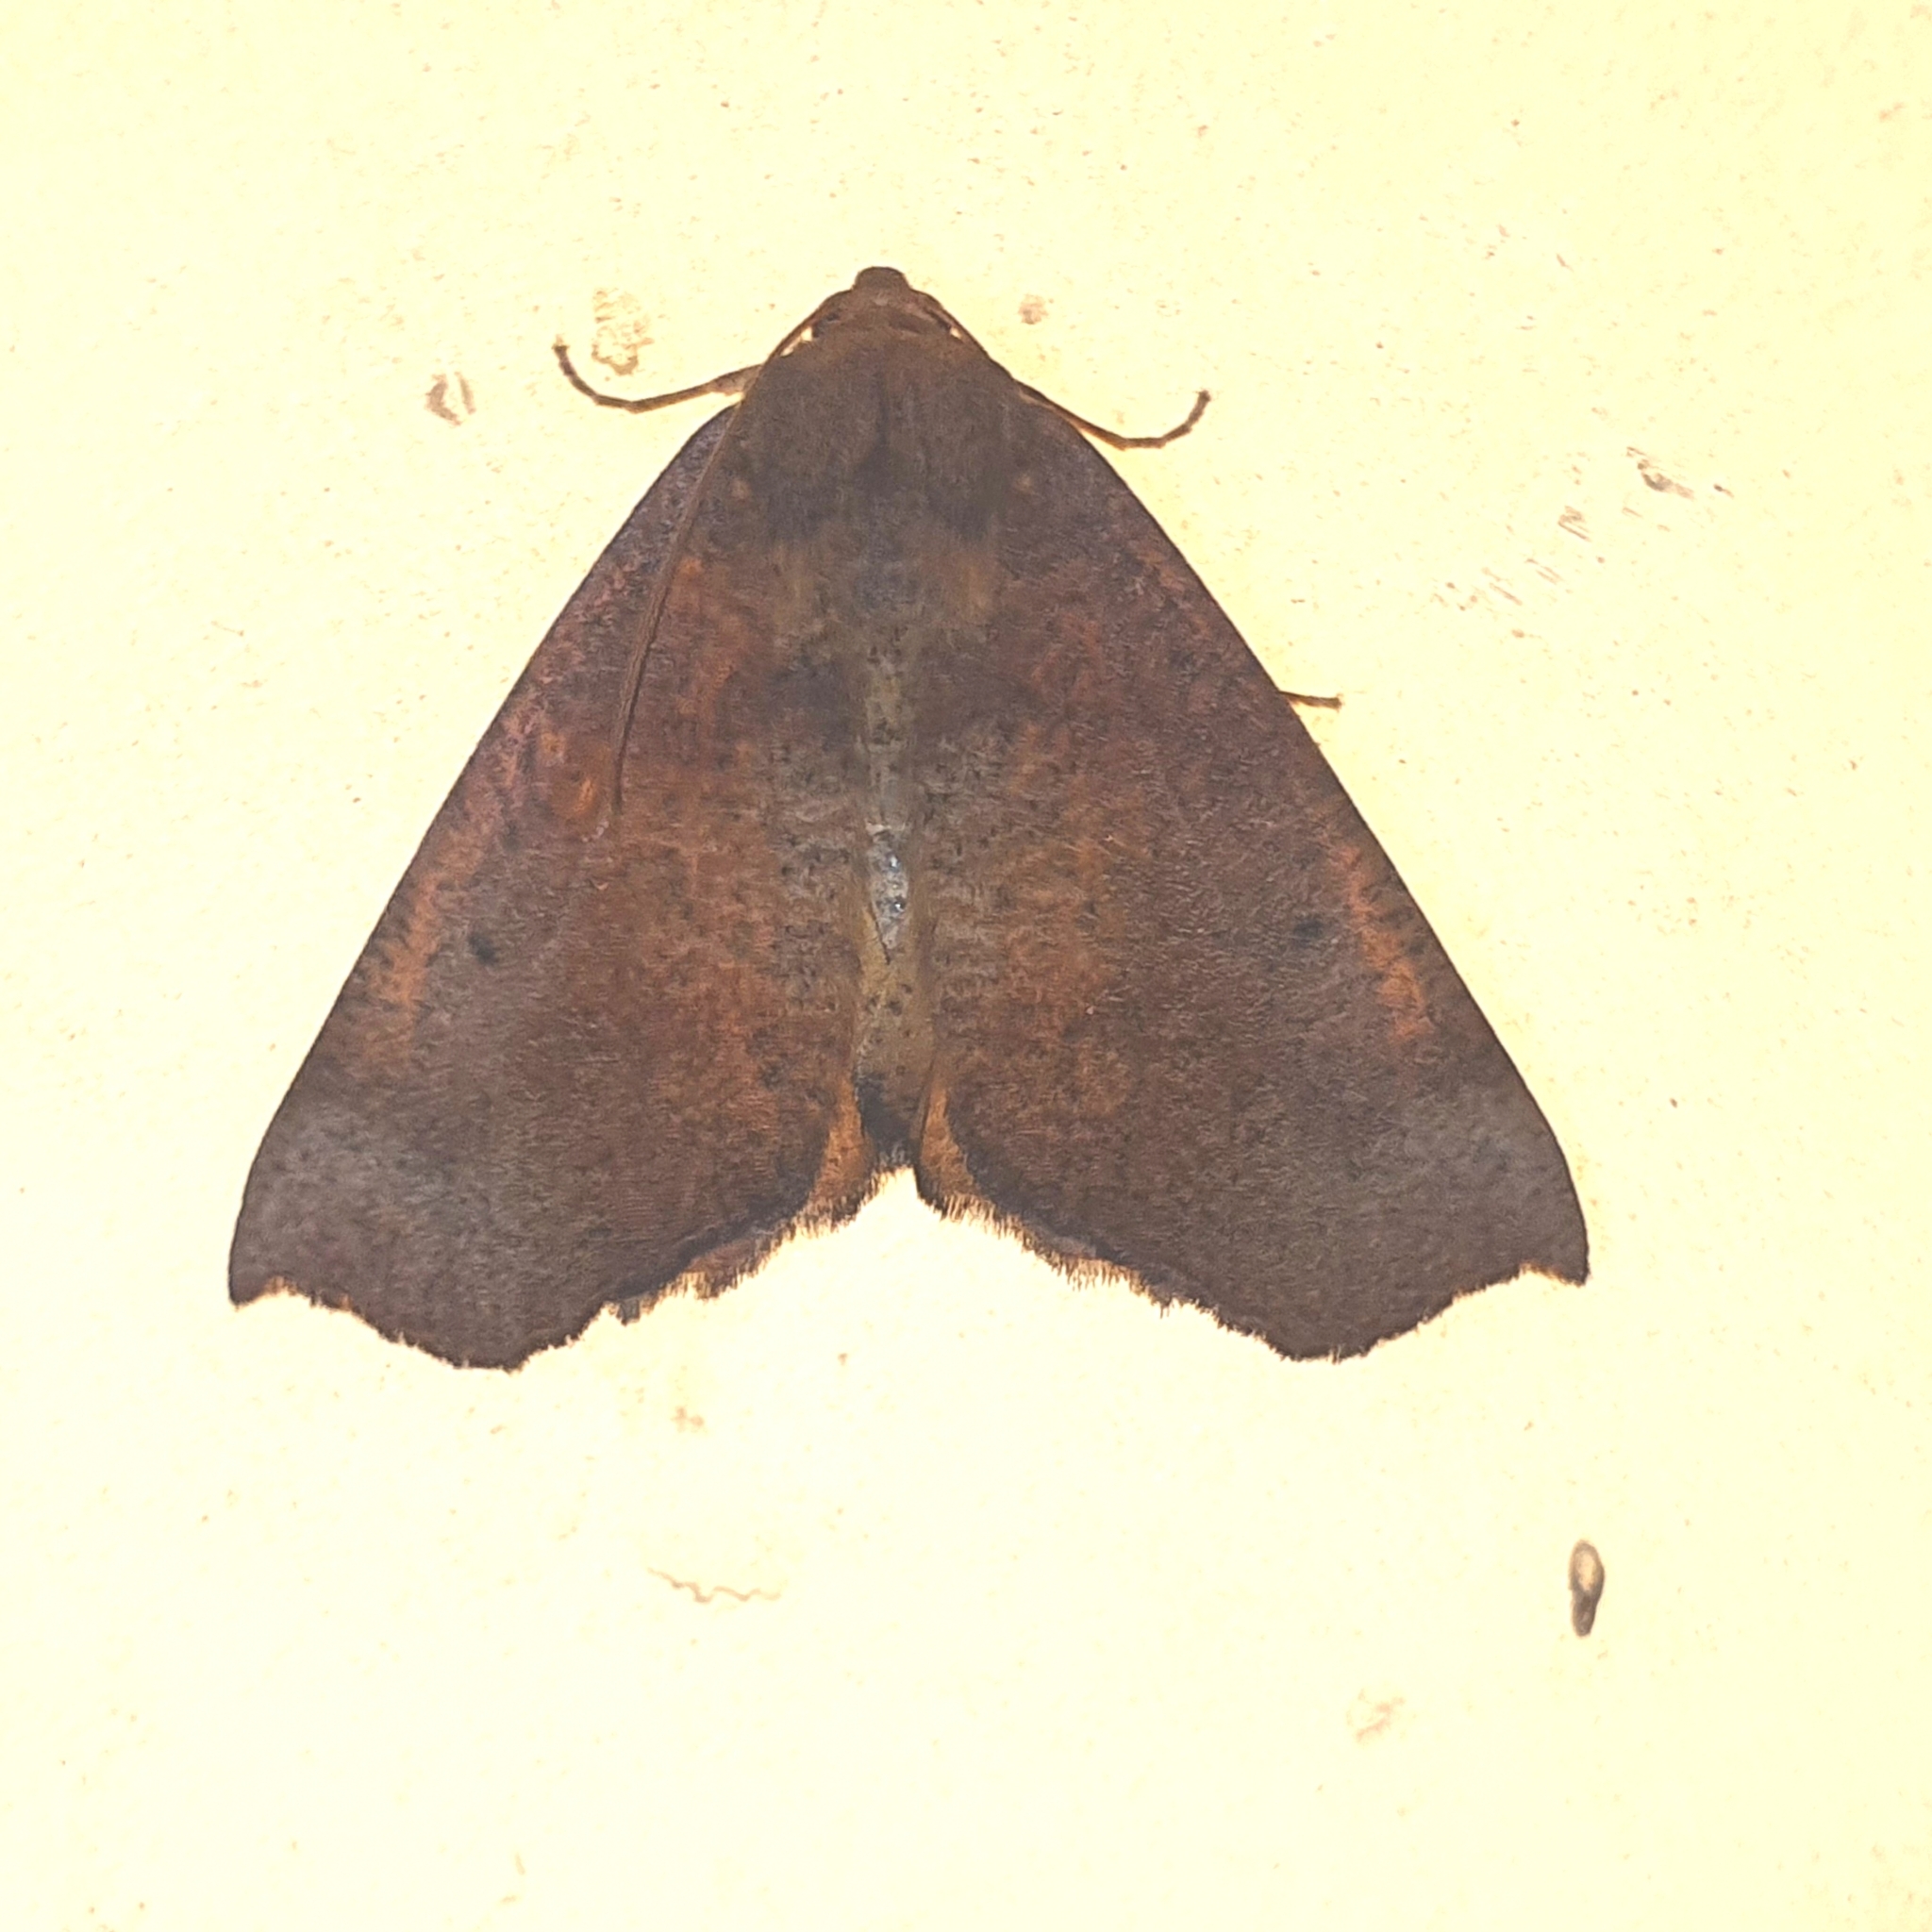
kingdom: Animalia
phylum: Arthropoda
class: Insecta
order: Lepidoptera
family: Geometridae
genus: Mnesampela
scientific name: Mnesampela privata
